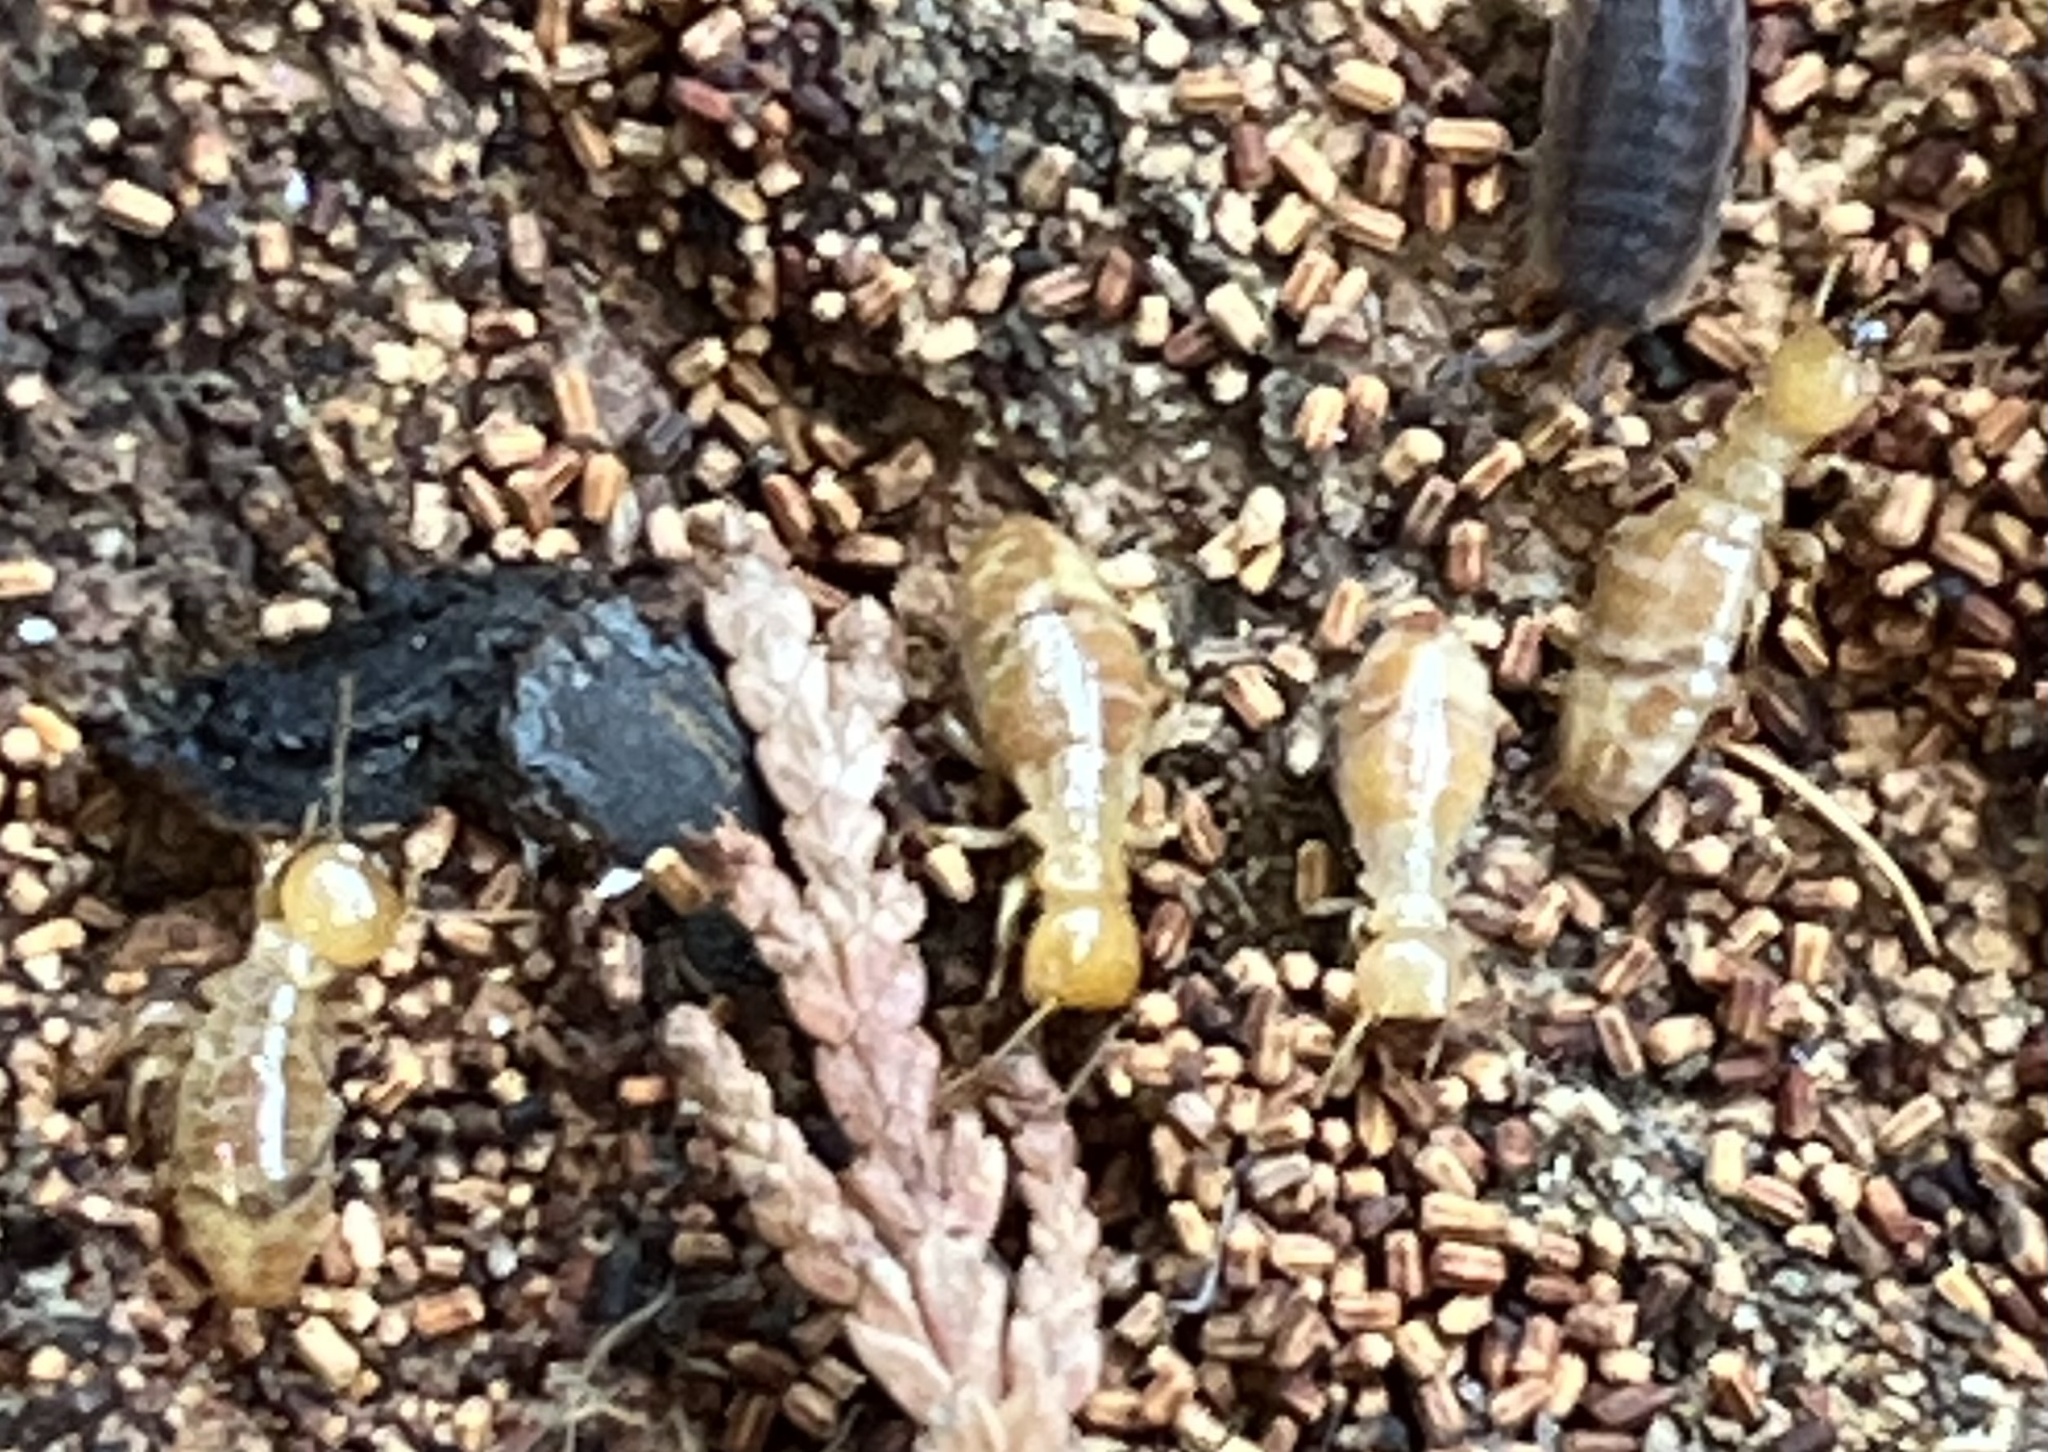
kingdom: Animalia
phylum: Arthropoda
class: Insecta
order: Blattodea
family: Archotermopsidae
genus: Zootermopsis
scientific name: Zootermopsis
